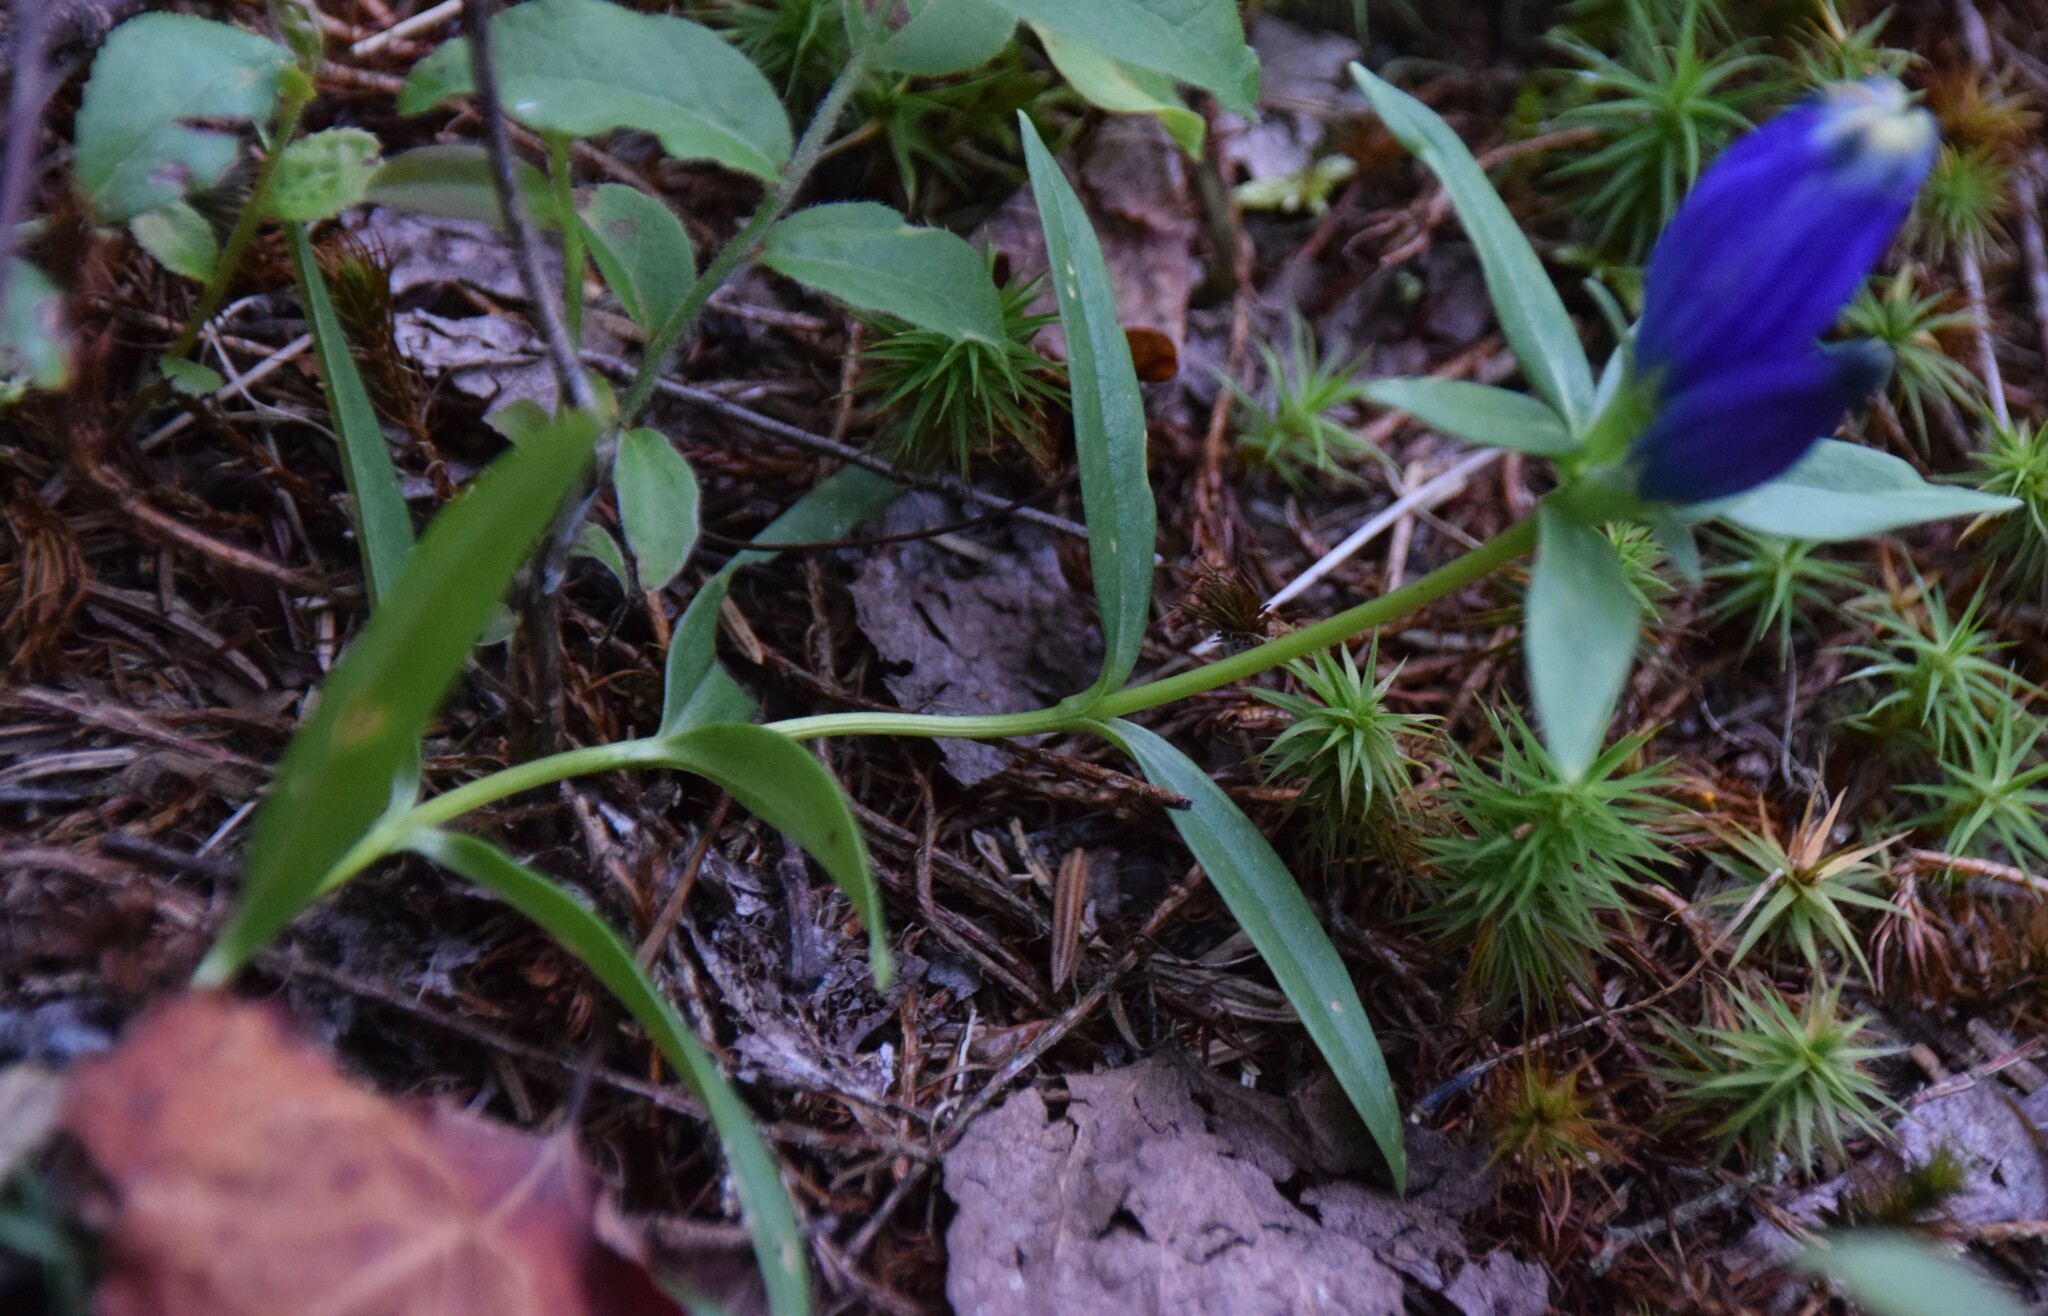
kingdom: Plantae
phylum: Tracheophyta
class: Magnoliopsida
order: Gentianales
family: Gentianaceae
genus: Gentiana
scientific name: Gentiana linearis
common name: Bastard gentian
